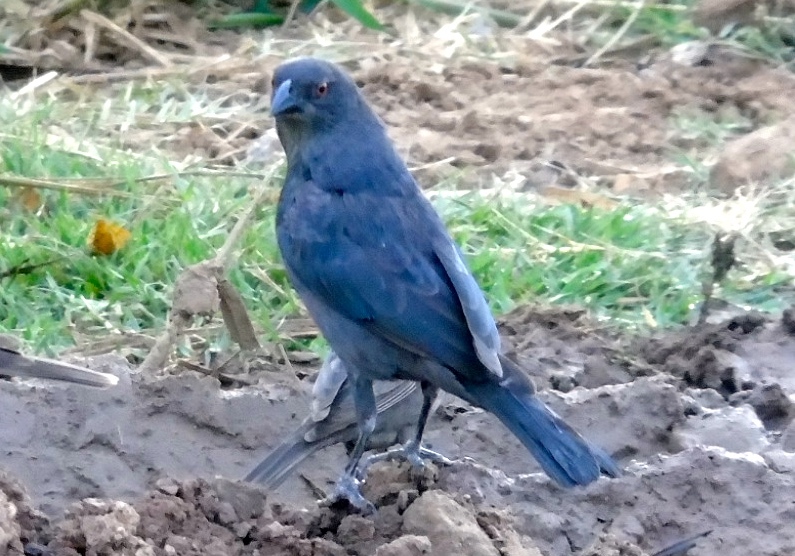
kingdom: Animalia
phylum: Chordata
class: Aves
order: Passeriformes
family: Icteridae
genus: Molothrus
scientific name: Molothrus aeneus
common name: Bronzed cowbird
